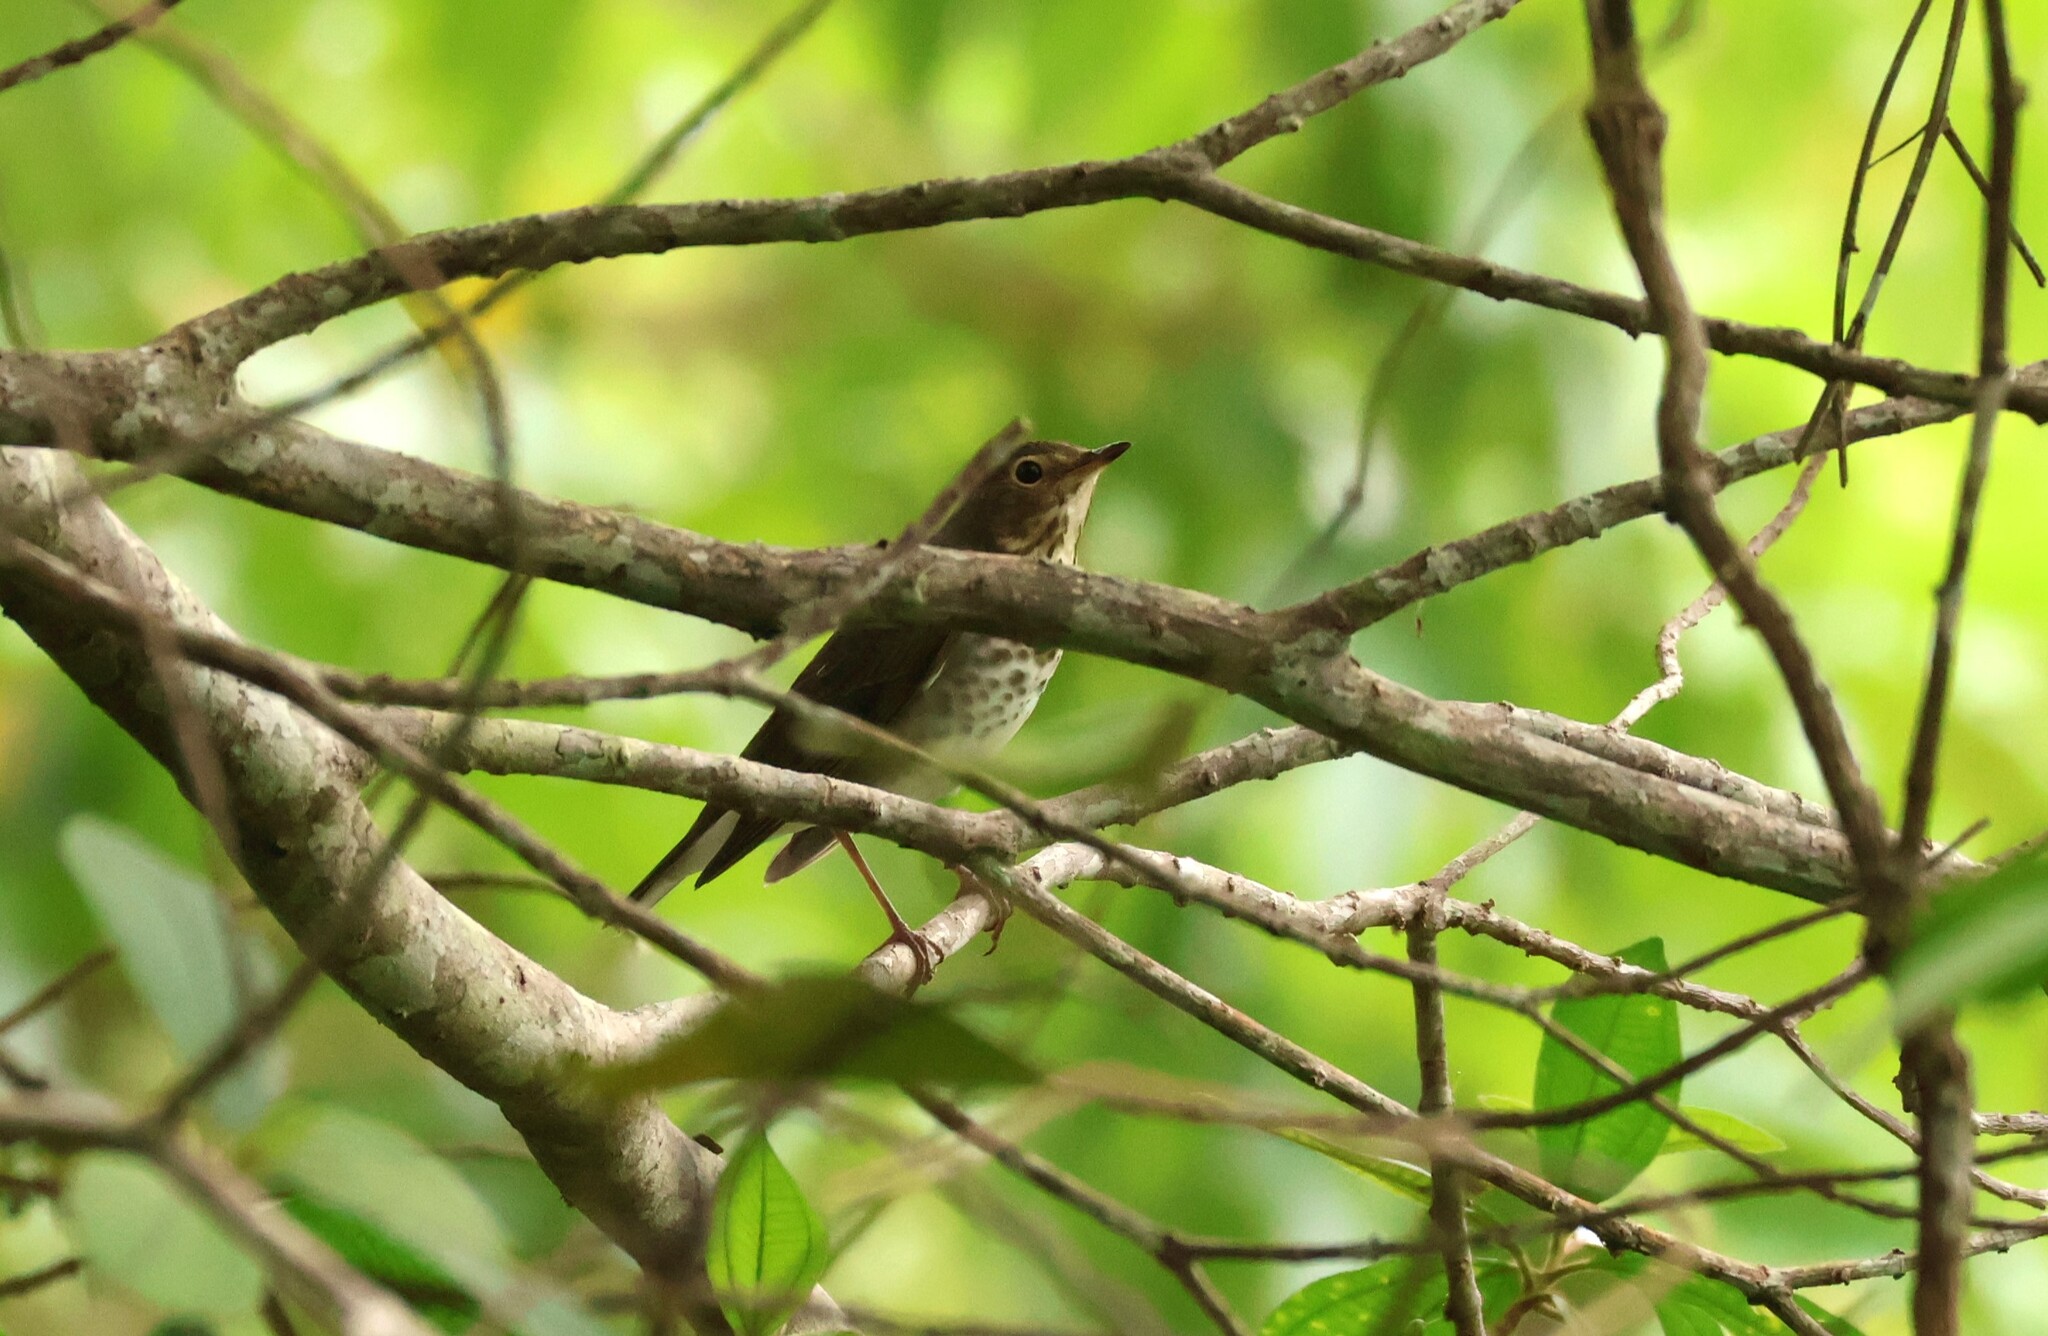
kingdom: Animalia
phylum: Chordata
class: Aves
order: Passeriformes
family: Turdidae
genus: Catharus
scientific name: Catharus ustulatus
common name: Swainson's thrush
